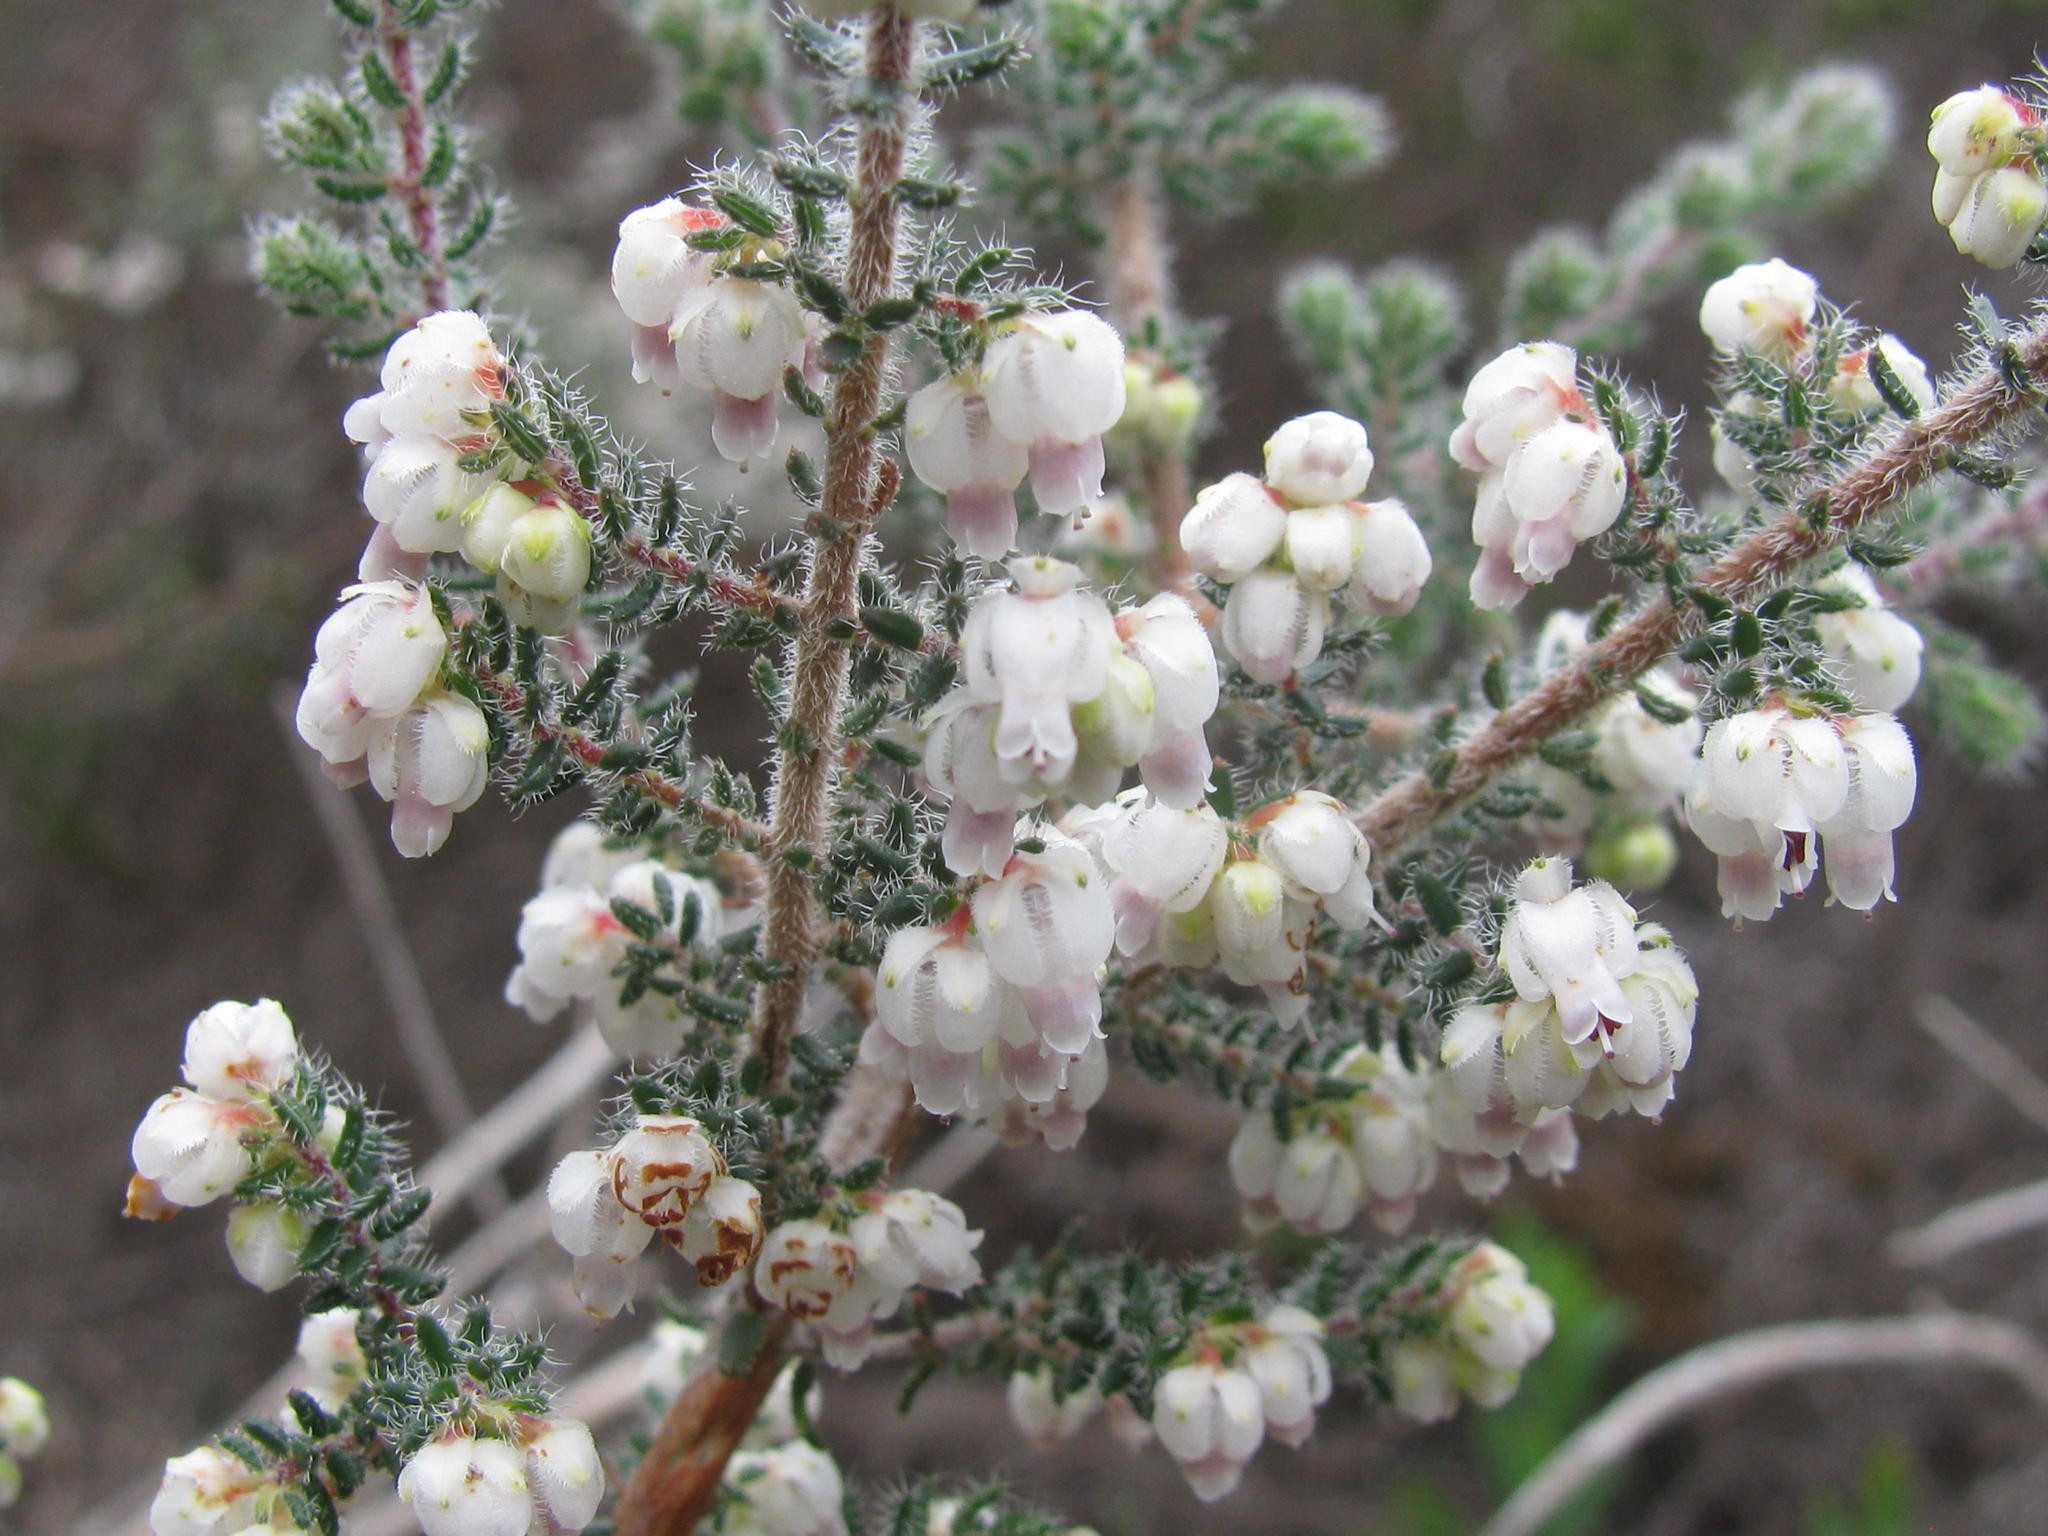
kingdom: Plantae
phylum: Tracheophyta
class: Magnoliopsida
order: Ericales
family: Ericaceae
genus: Erica
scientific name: Erica totta
